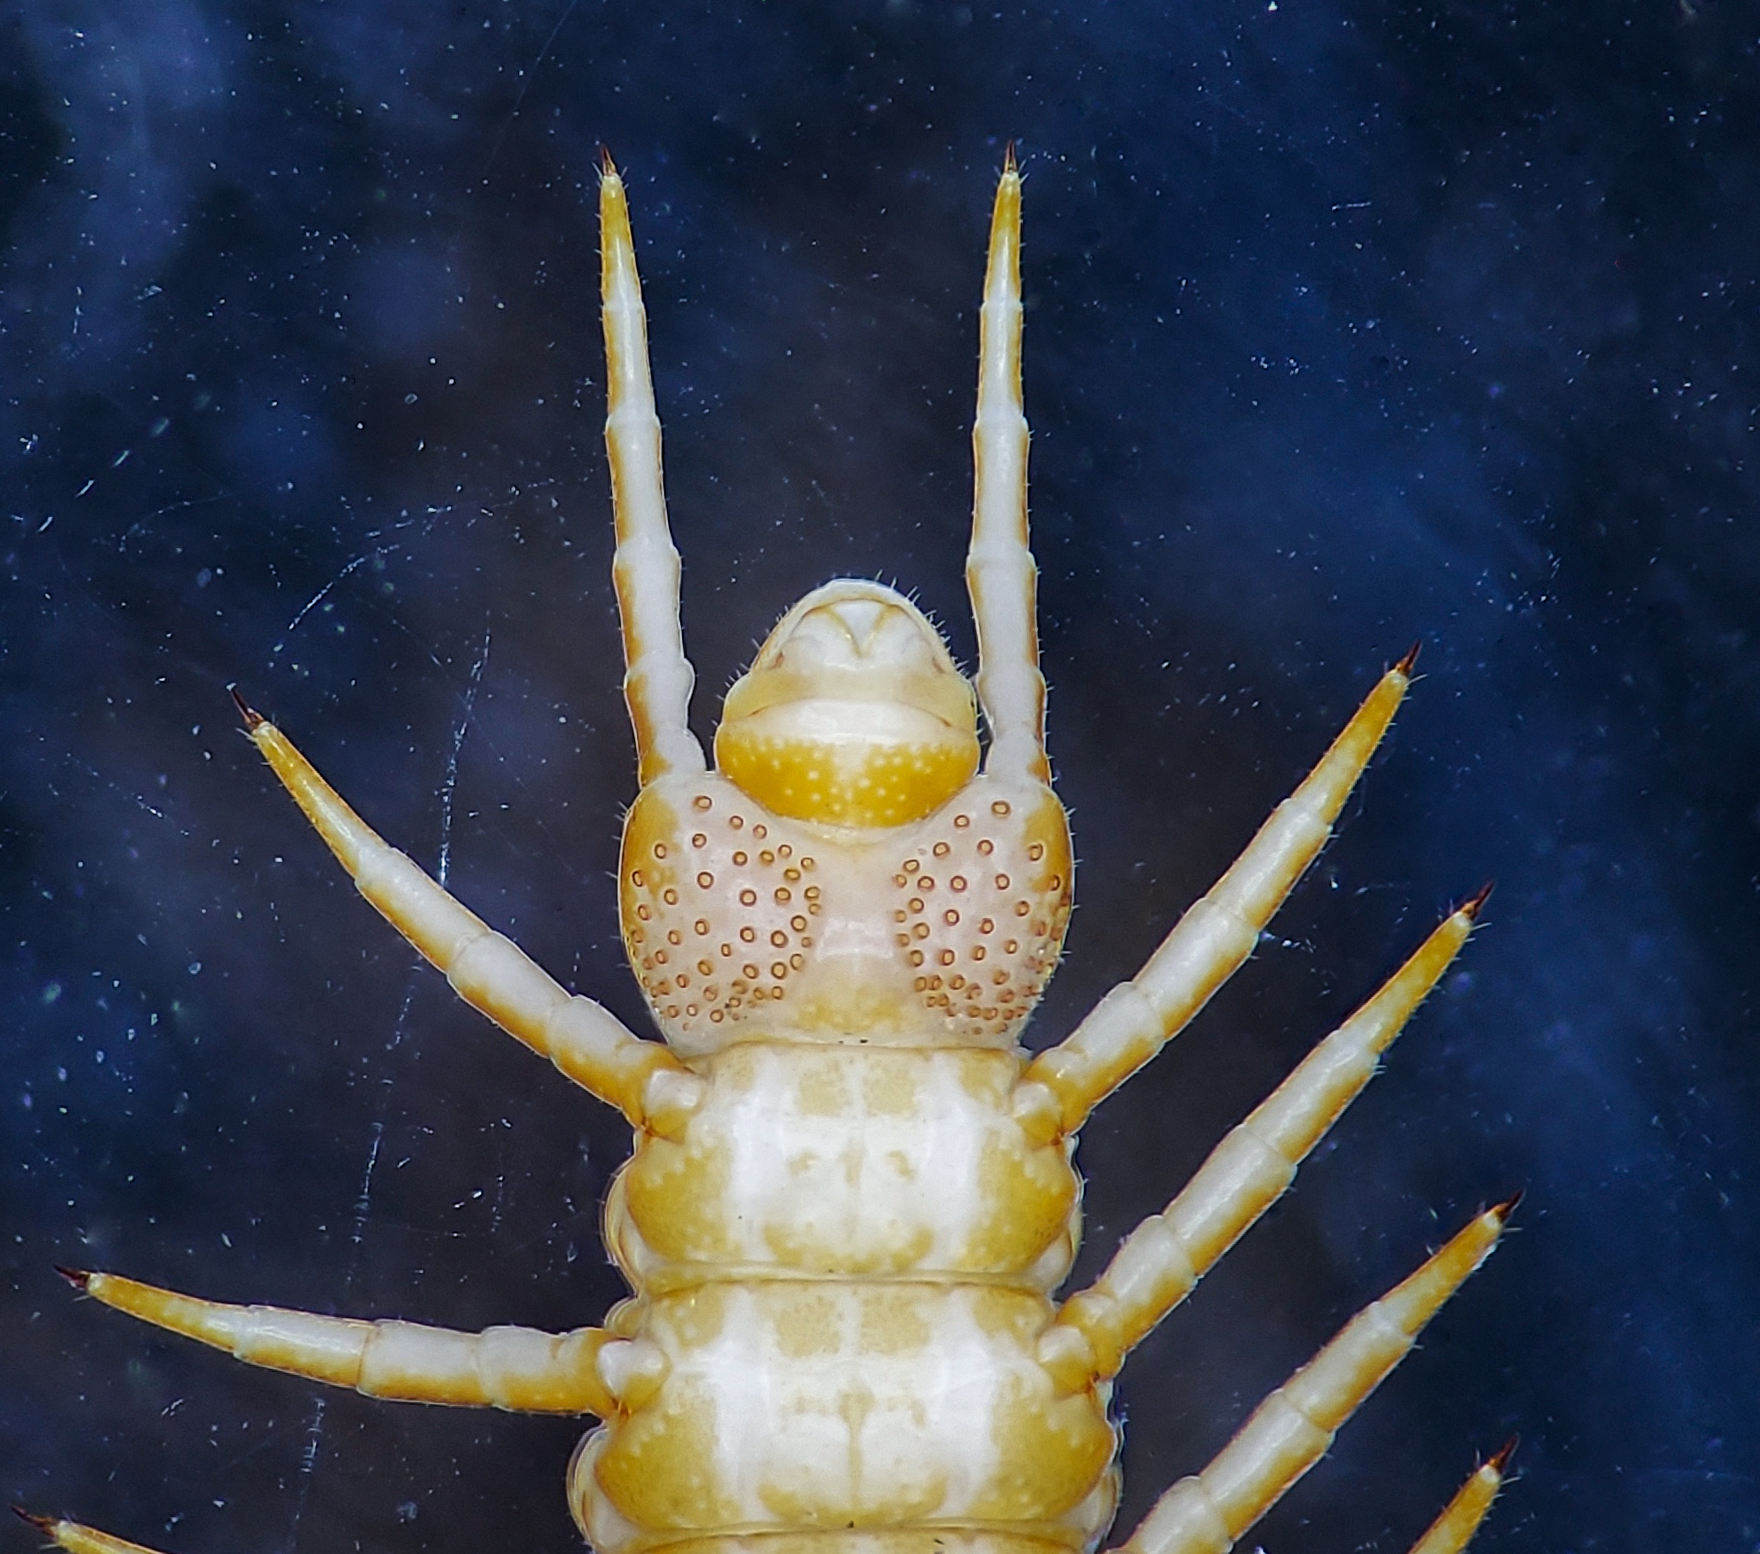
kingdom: Animalia
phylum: Arthropoda
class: Chilopoda
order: Geophilomorpha
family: Linotaeniidae
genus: Strigamia
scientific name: Strigamia bidens
